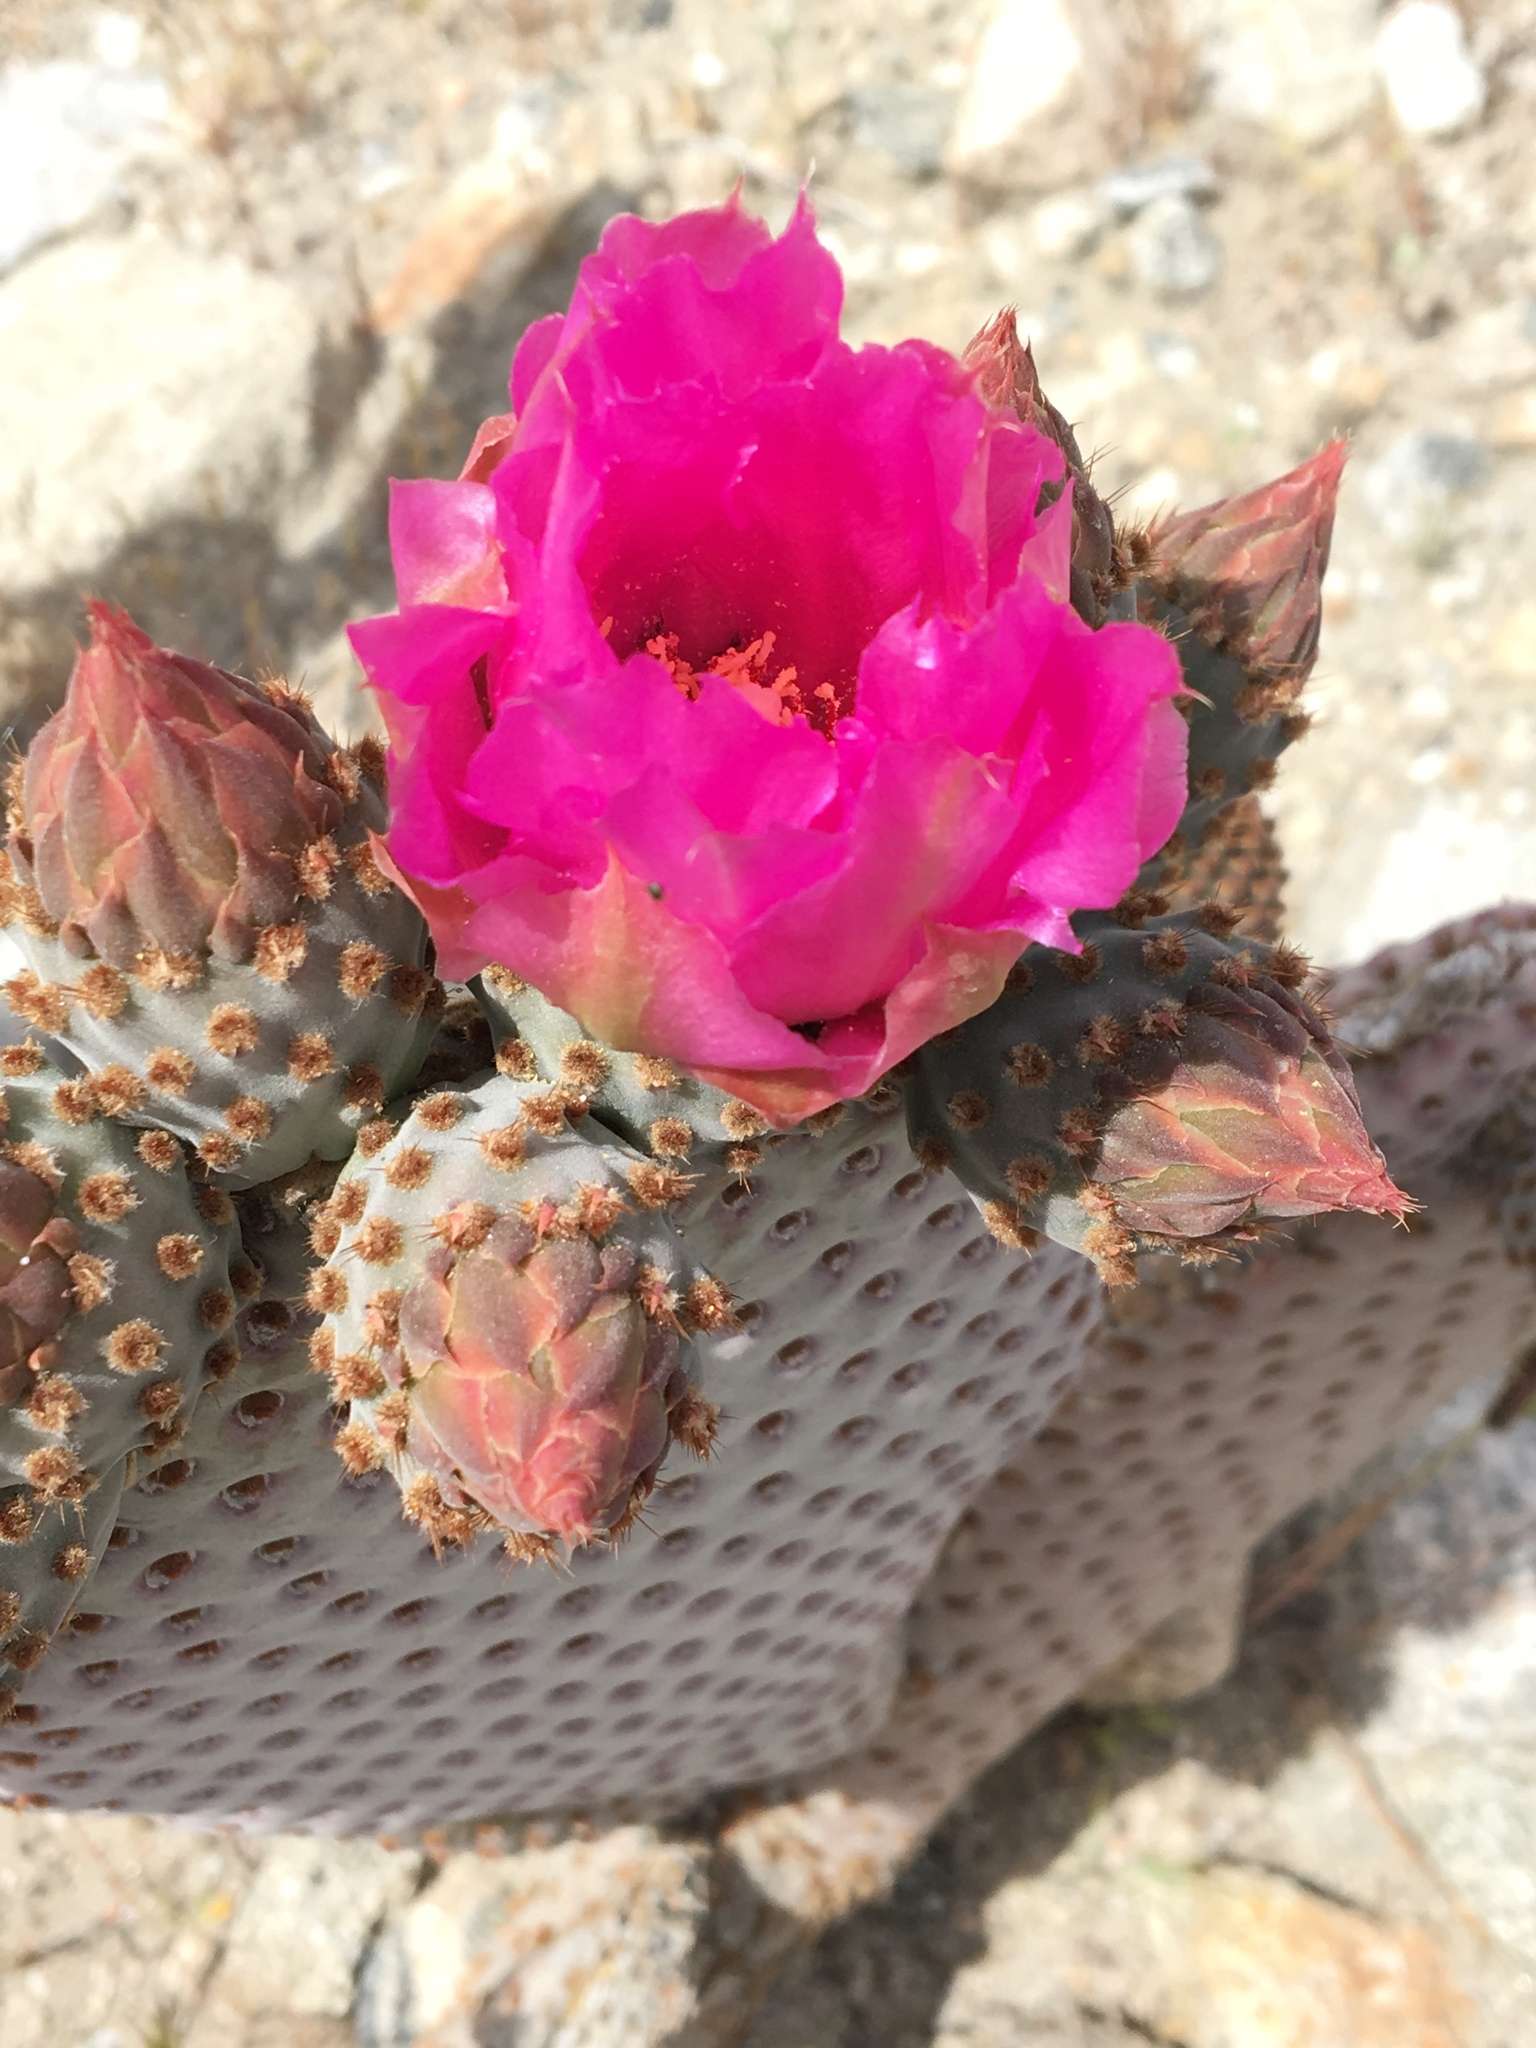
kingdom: Plantae
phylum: Tracheophyta
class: Magnoliopsida
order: Caryophyllales
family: Cactaceae
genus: Opuntia
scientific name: Opuntia basilaris
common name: Beavertail prickly-pear
